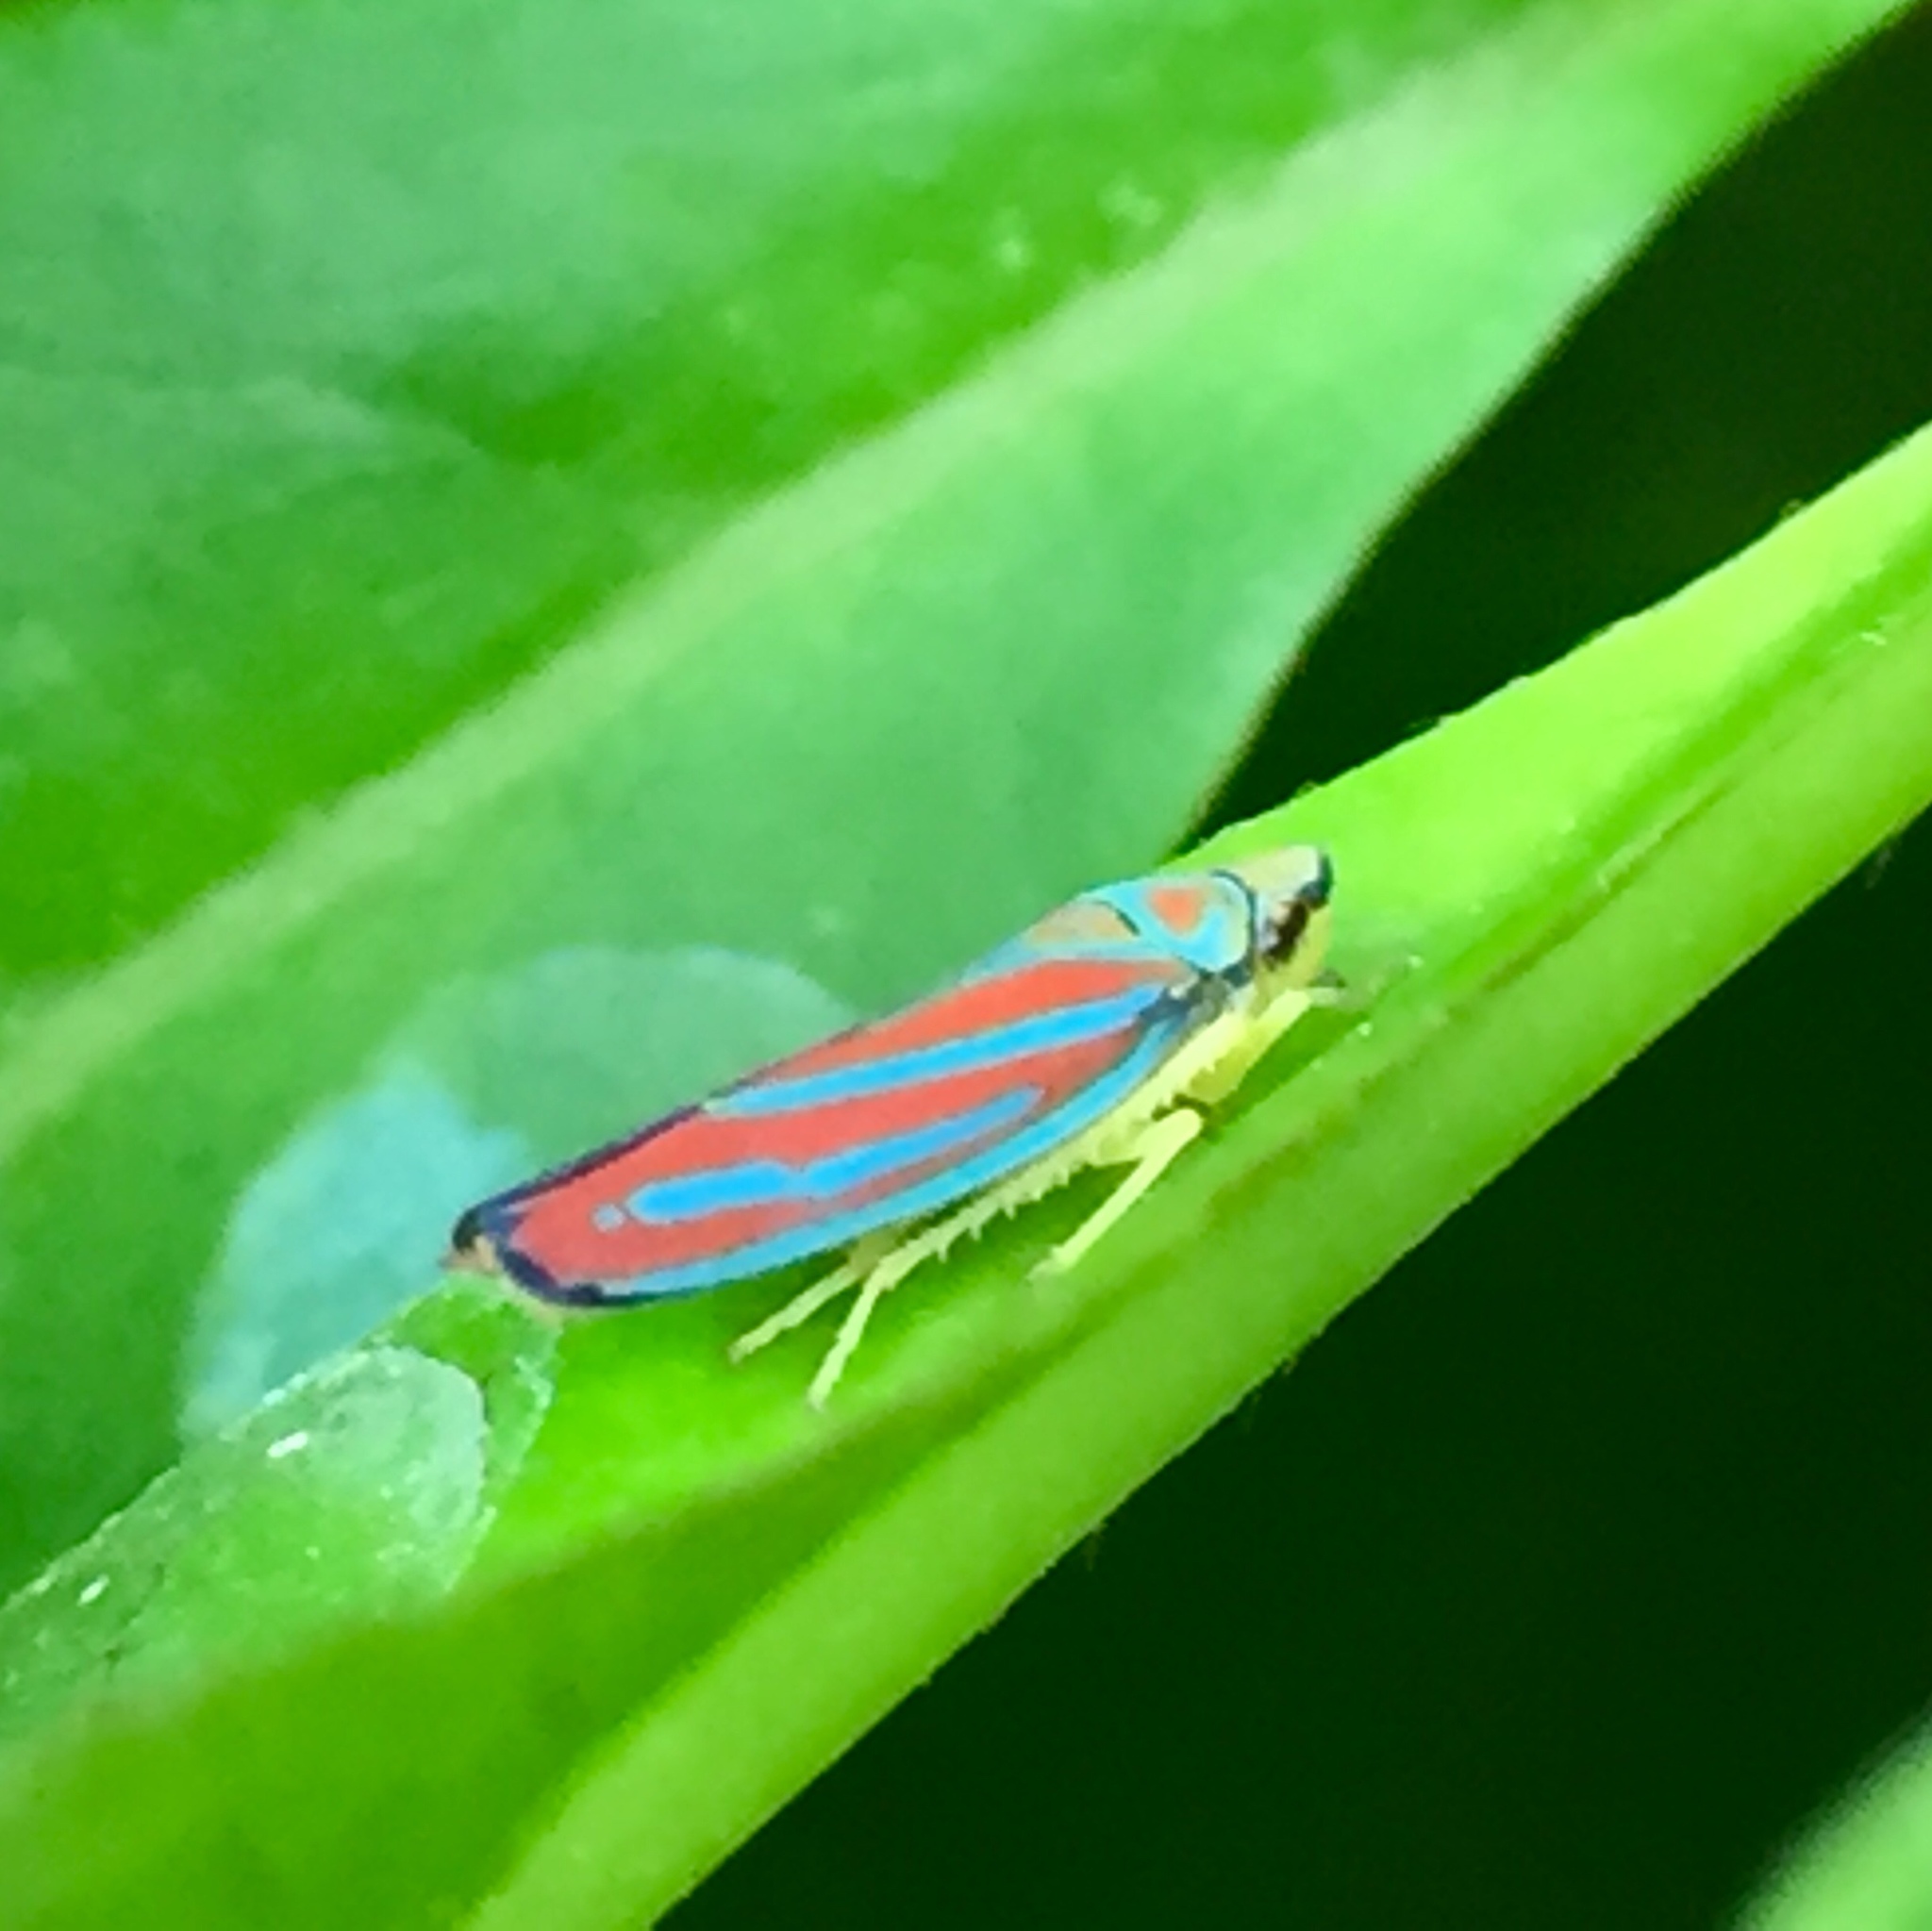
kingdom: Animalia
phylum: Arthropoda
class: Insecta
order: Hemiptera
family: Cicadellidae
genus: Graphocephala
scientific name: Graphocephala coccinea
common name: Candy-striped leafhopper
